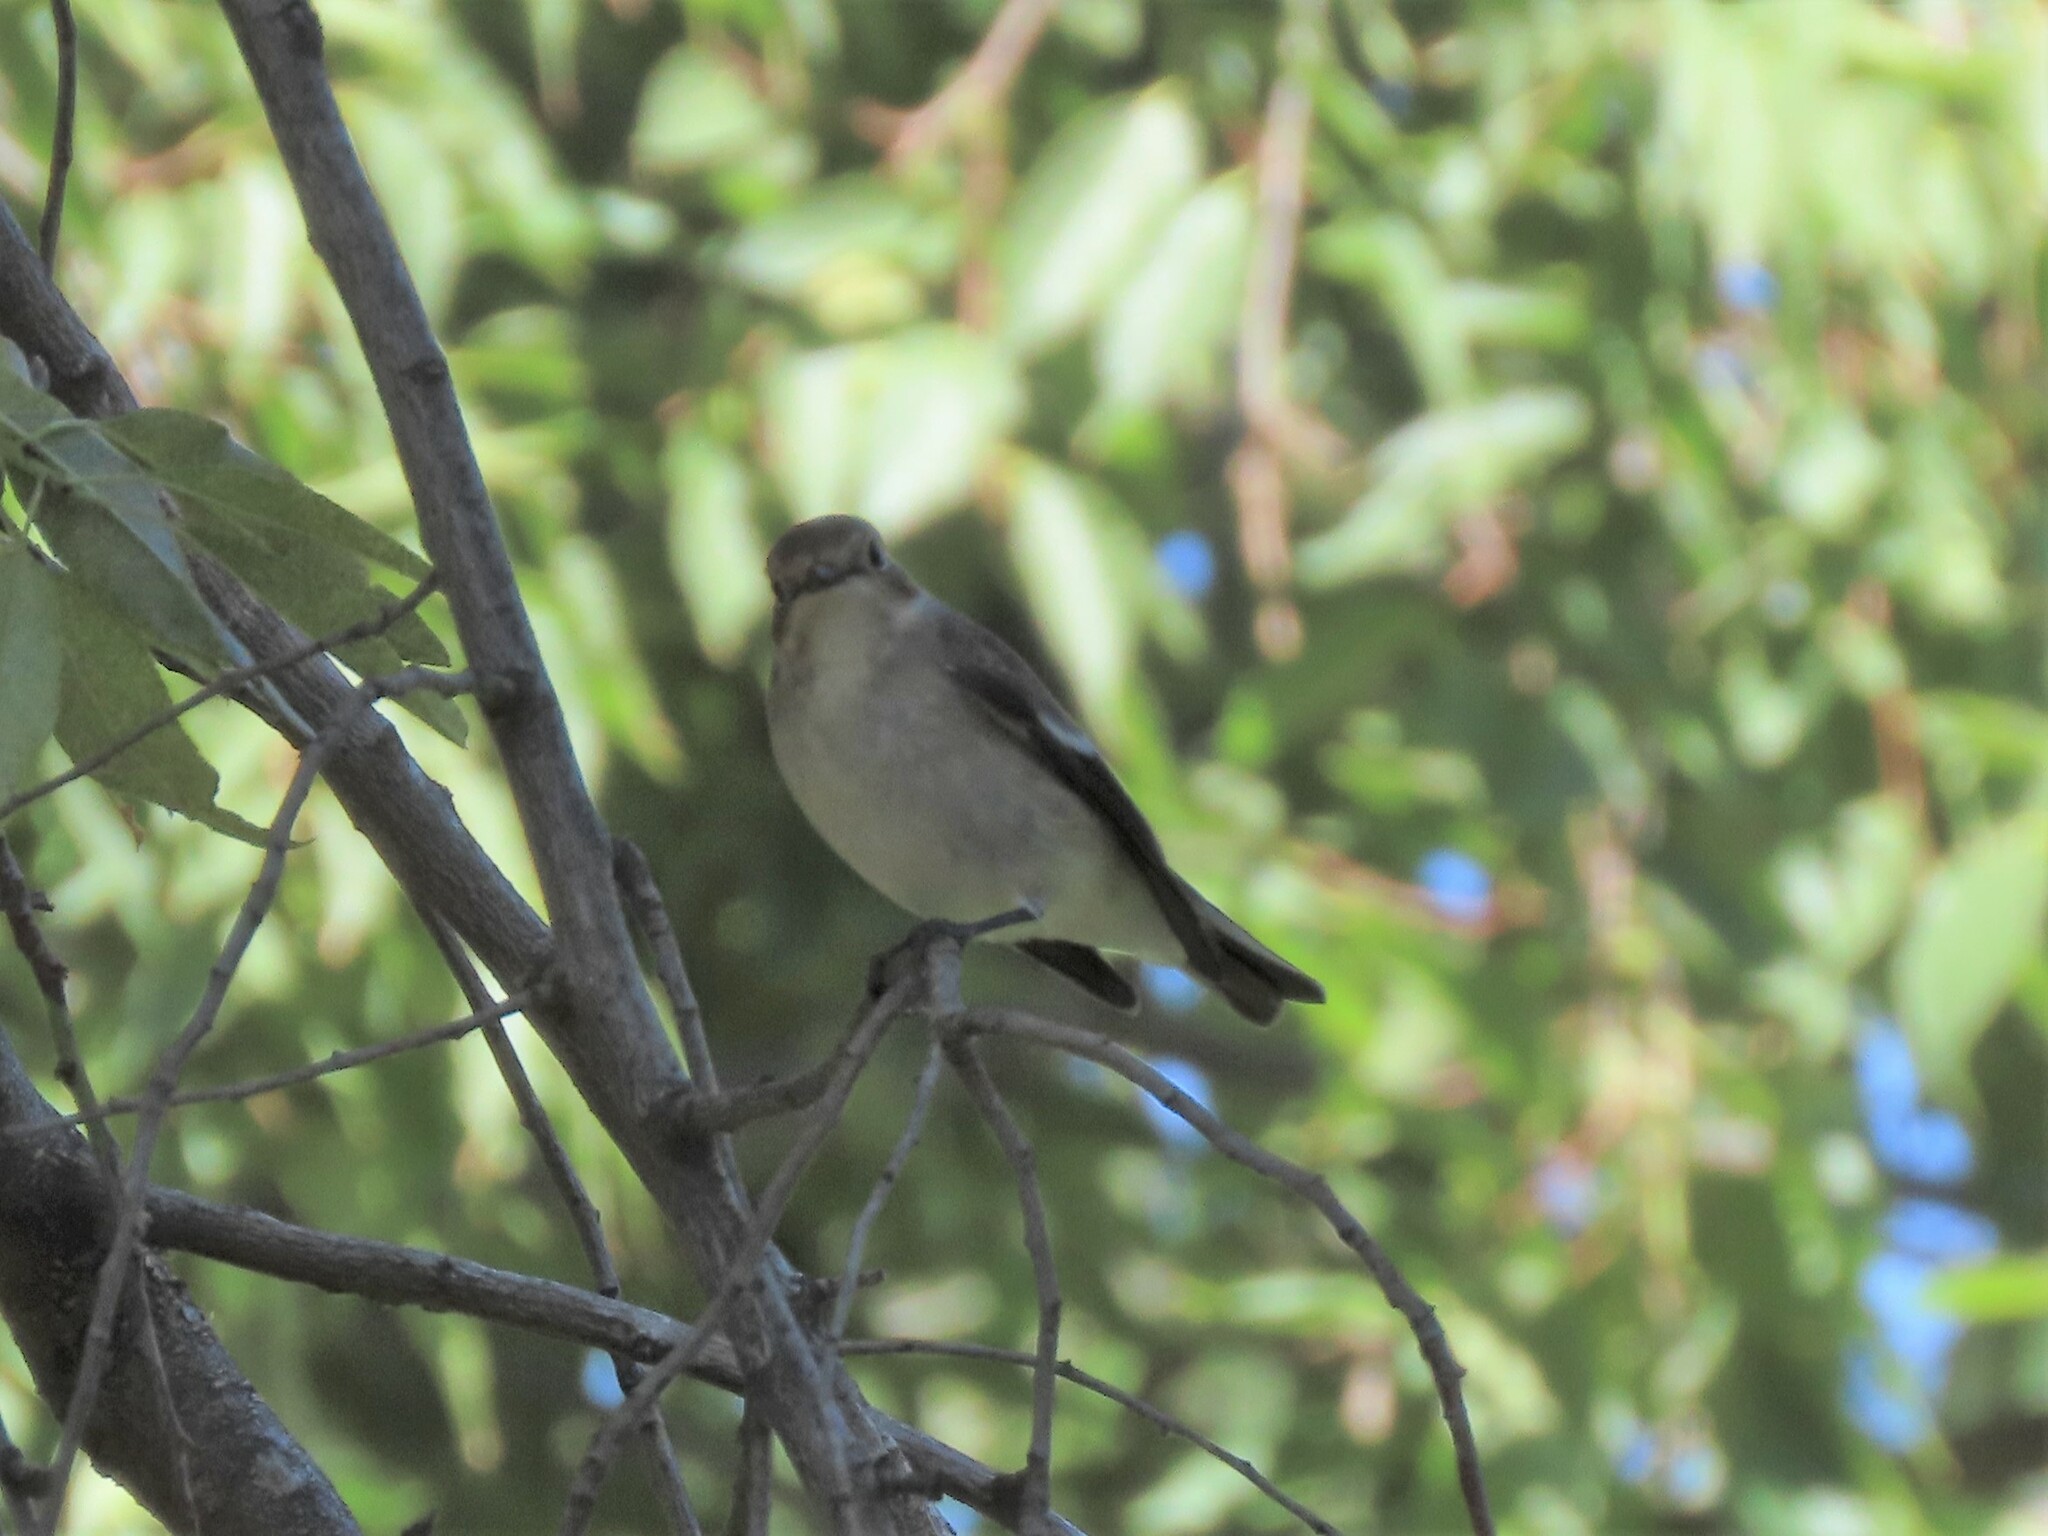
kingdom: Animalia
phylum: Chordata
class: Aves
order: Passeriformes
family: Muscicapidae
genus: Ficedula
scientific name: Ficedula hypoleuca
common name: European pied flycatcher
